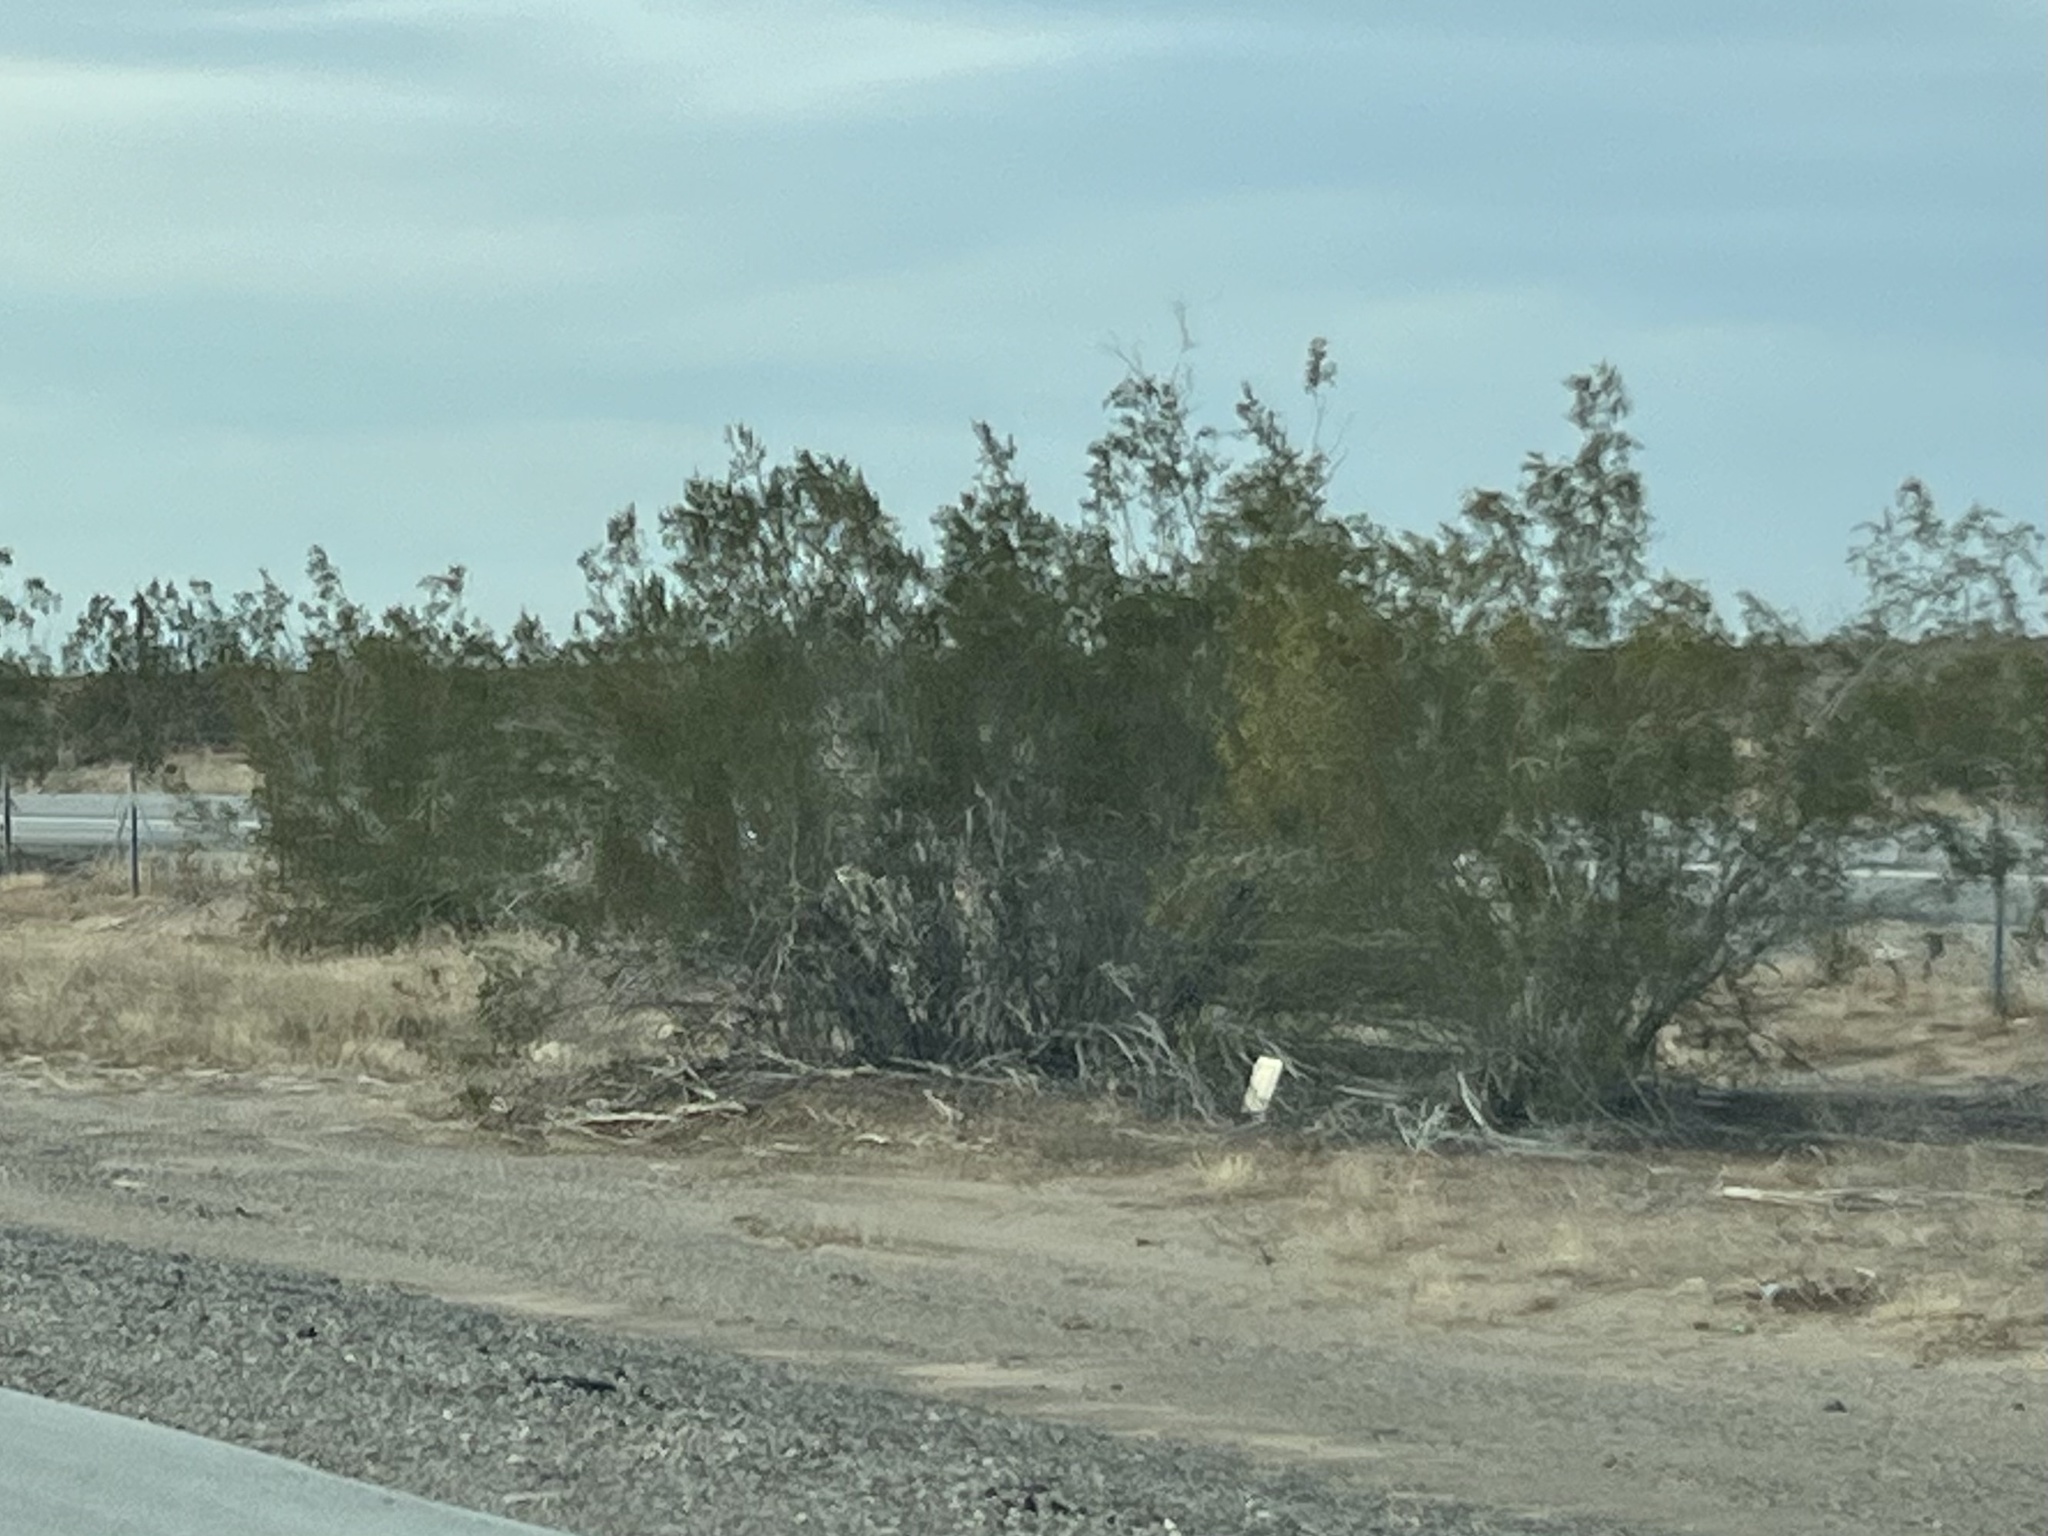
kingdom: Plantae
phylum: Tracheophyta
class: Magnoliopsida
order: Zygophyllales
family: Zygophyllaceae
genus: Larrea
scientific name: Larrea tridentata
